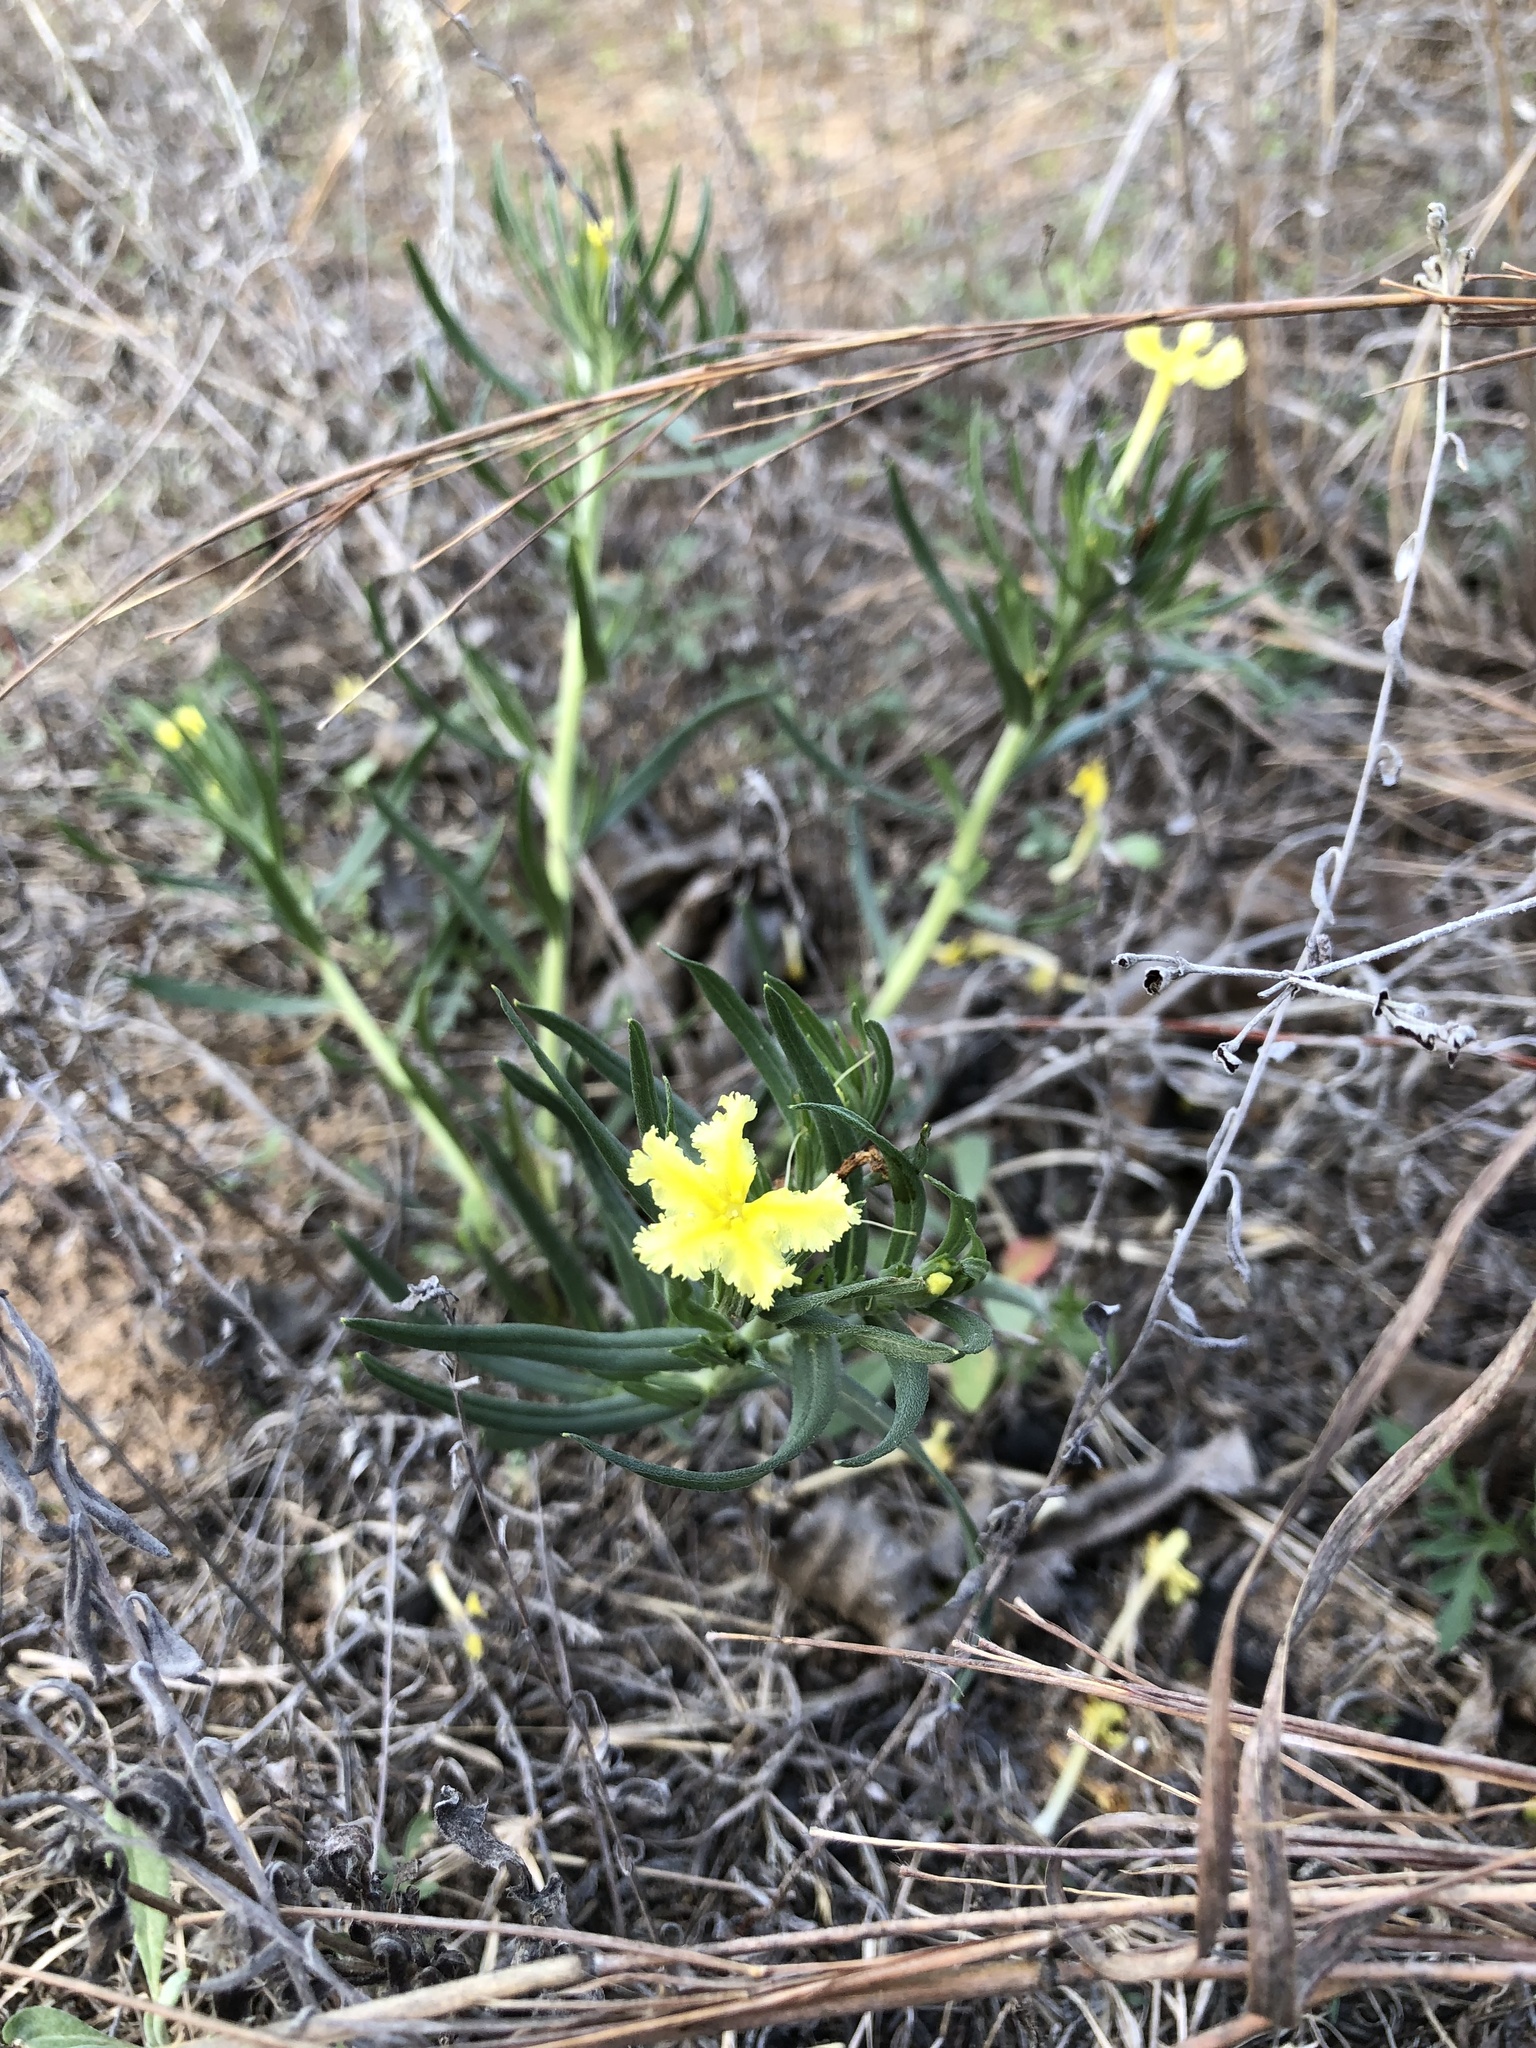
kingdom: Plantae
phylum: Tracheophyta
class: Magnoliopsida
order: Boraginales
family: Boraginaceae
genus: Lithospermum
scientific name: Lithospermum incisum
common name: Fringed gromwell
